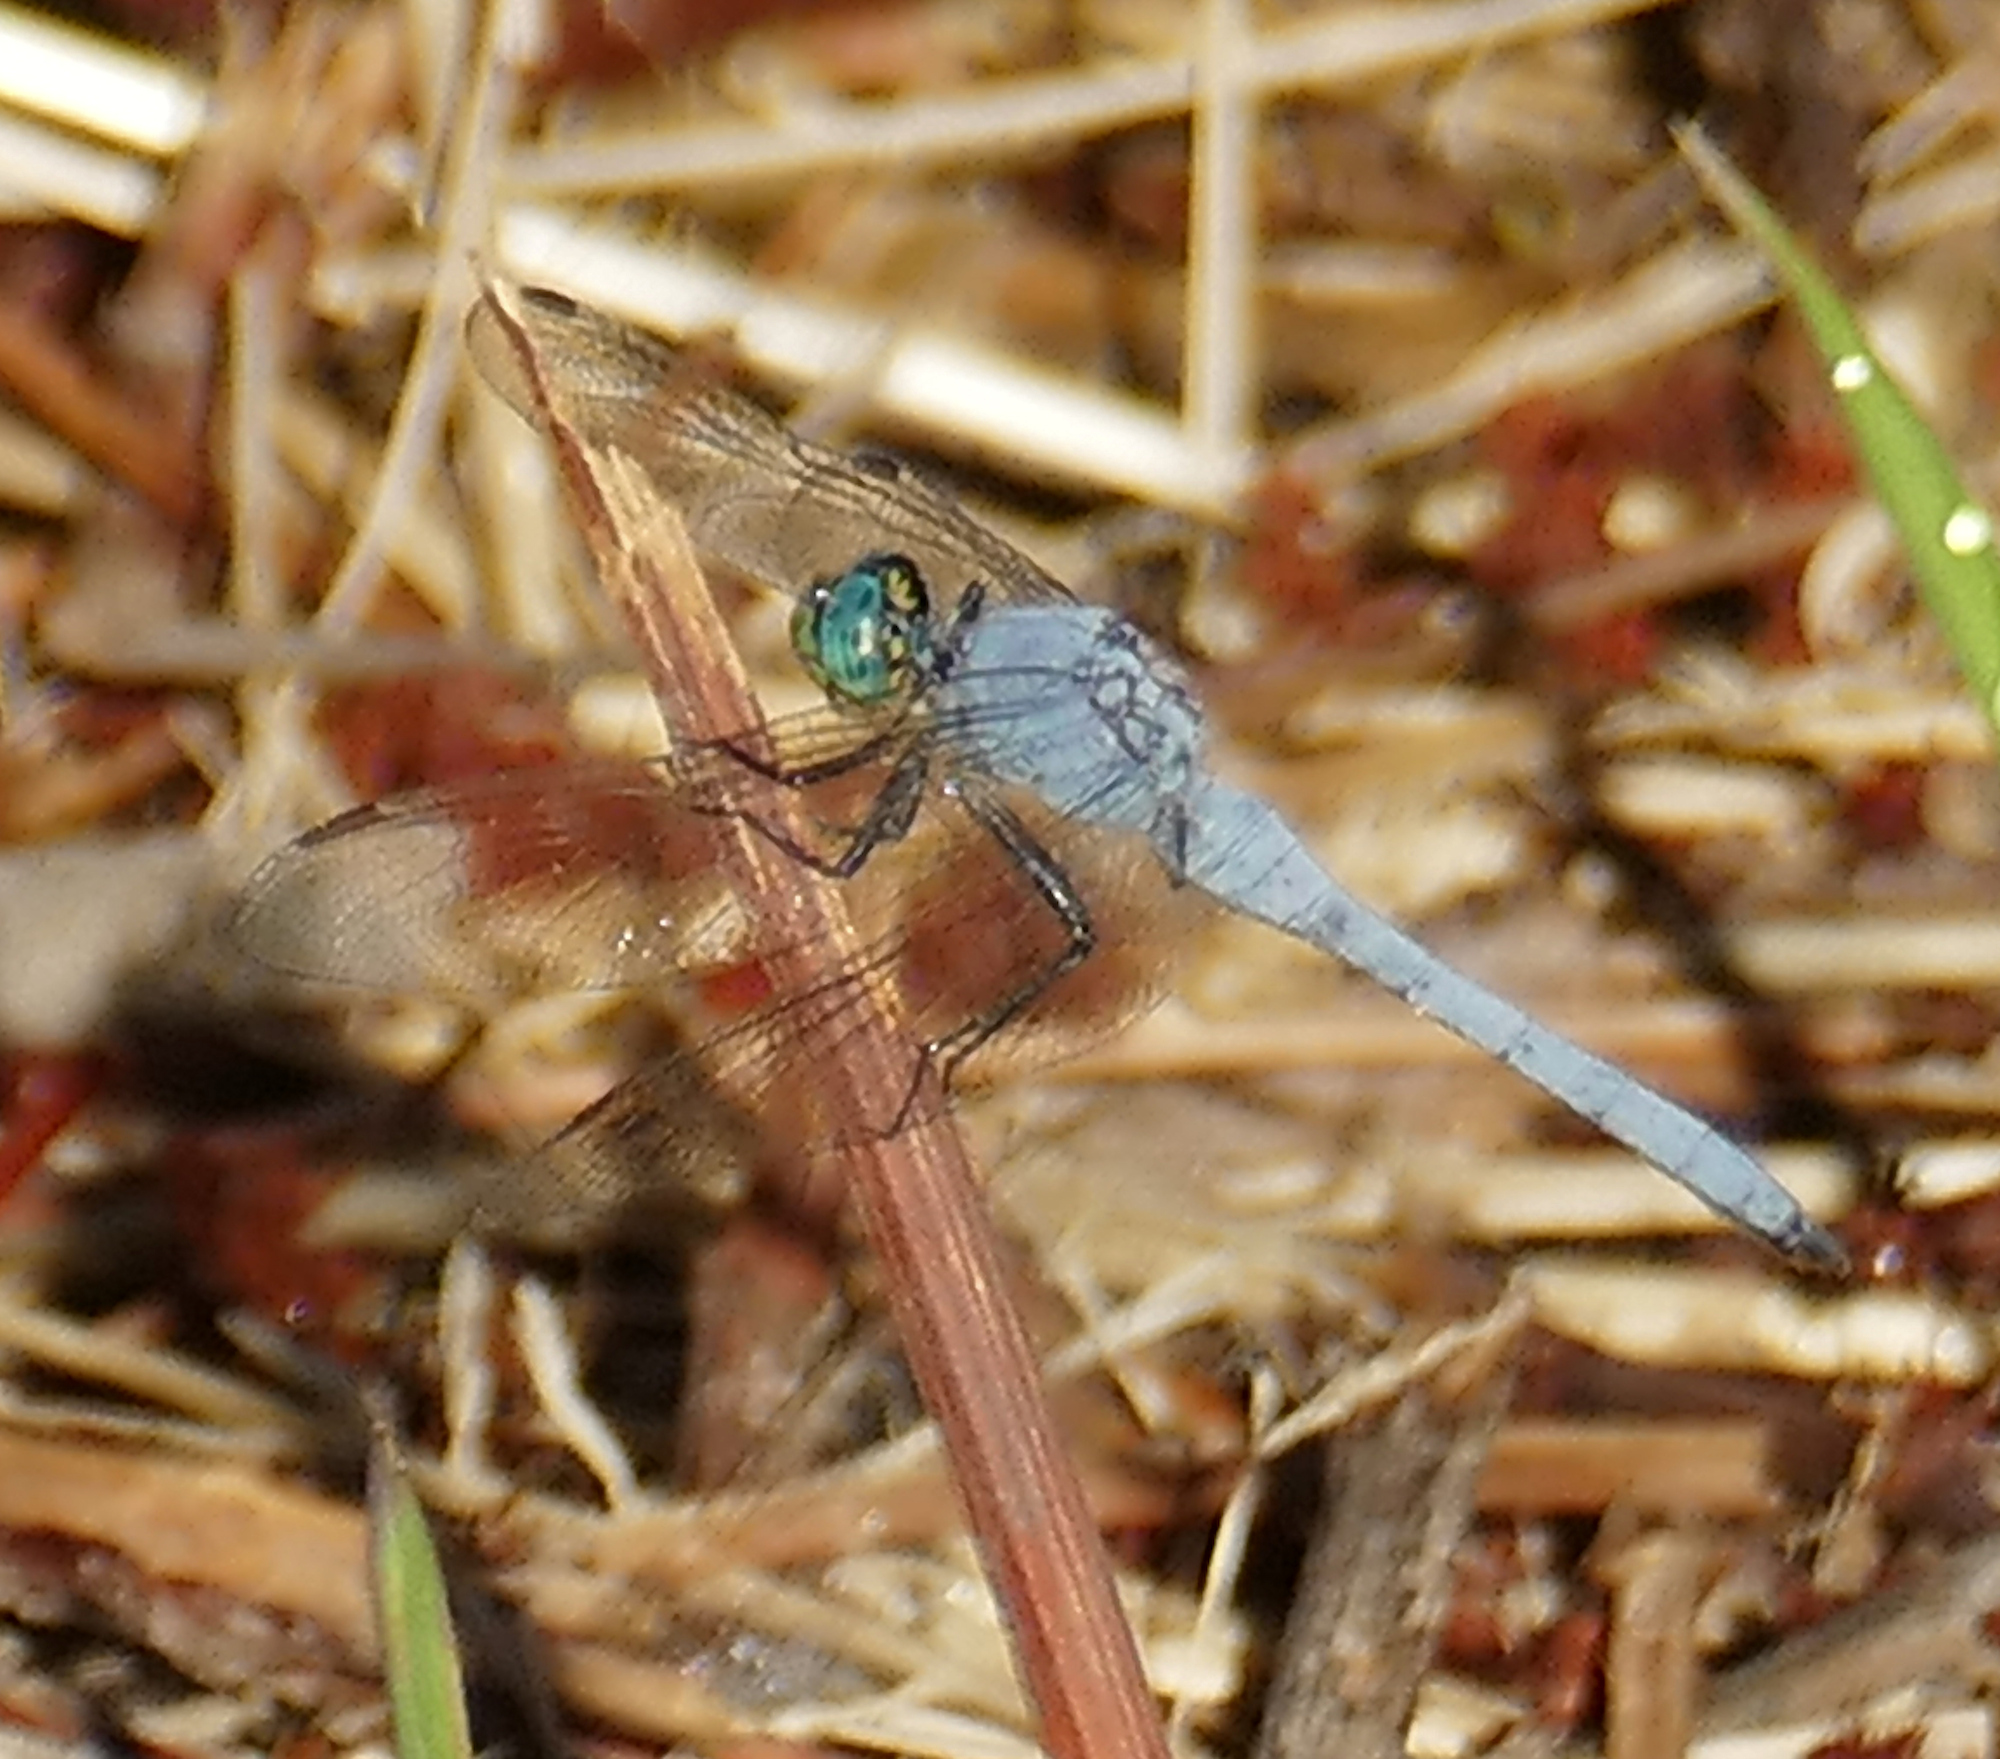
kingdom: Animalia
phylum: Arthropoda
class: Insecta
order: Odonata
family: Libellulidae
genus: Erythemis
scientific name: Erythemis collocata
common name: Western pondhawk
